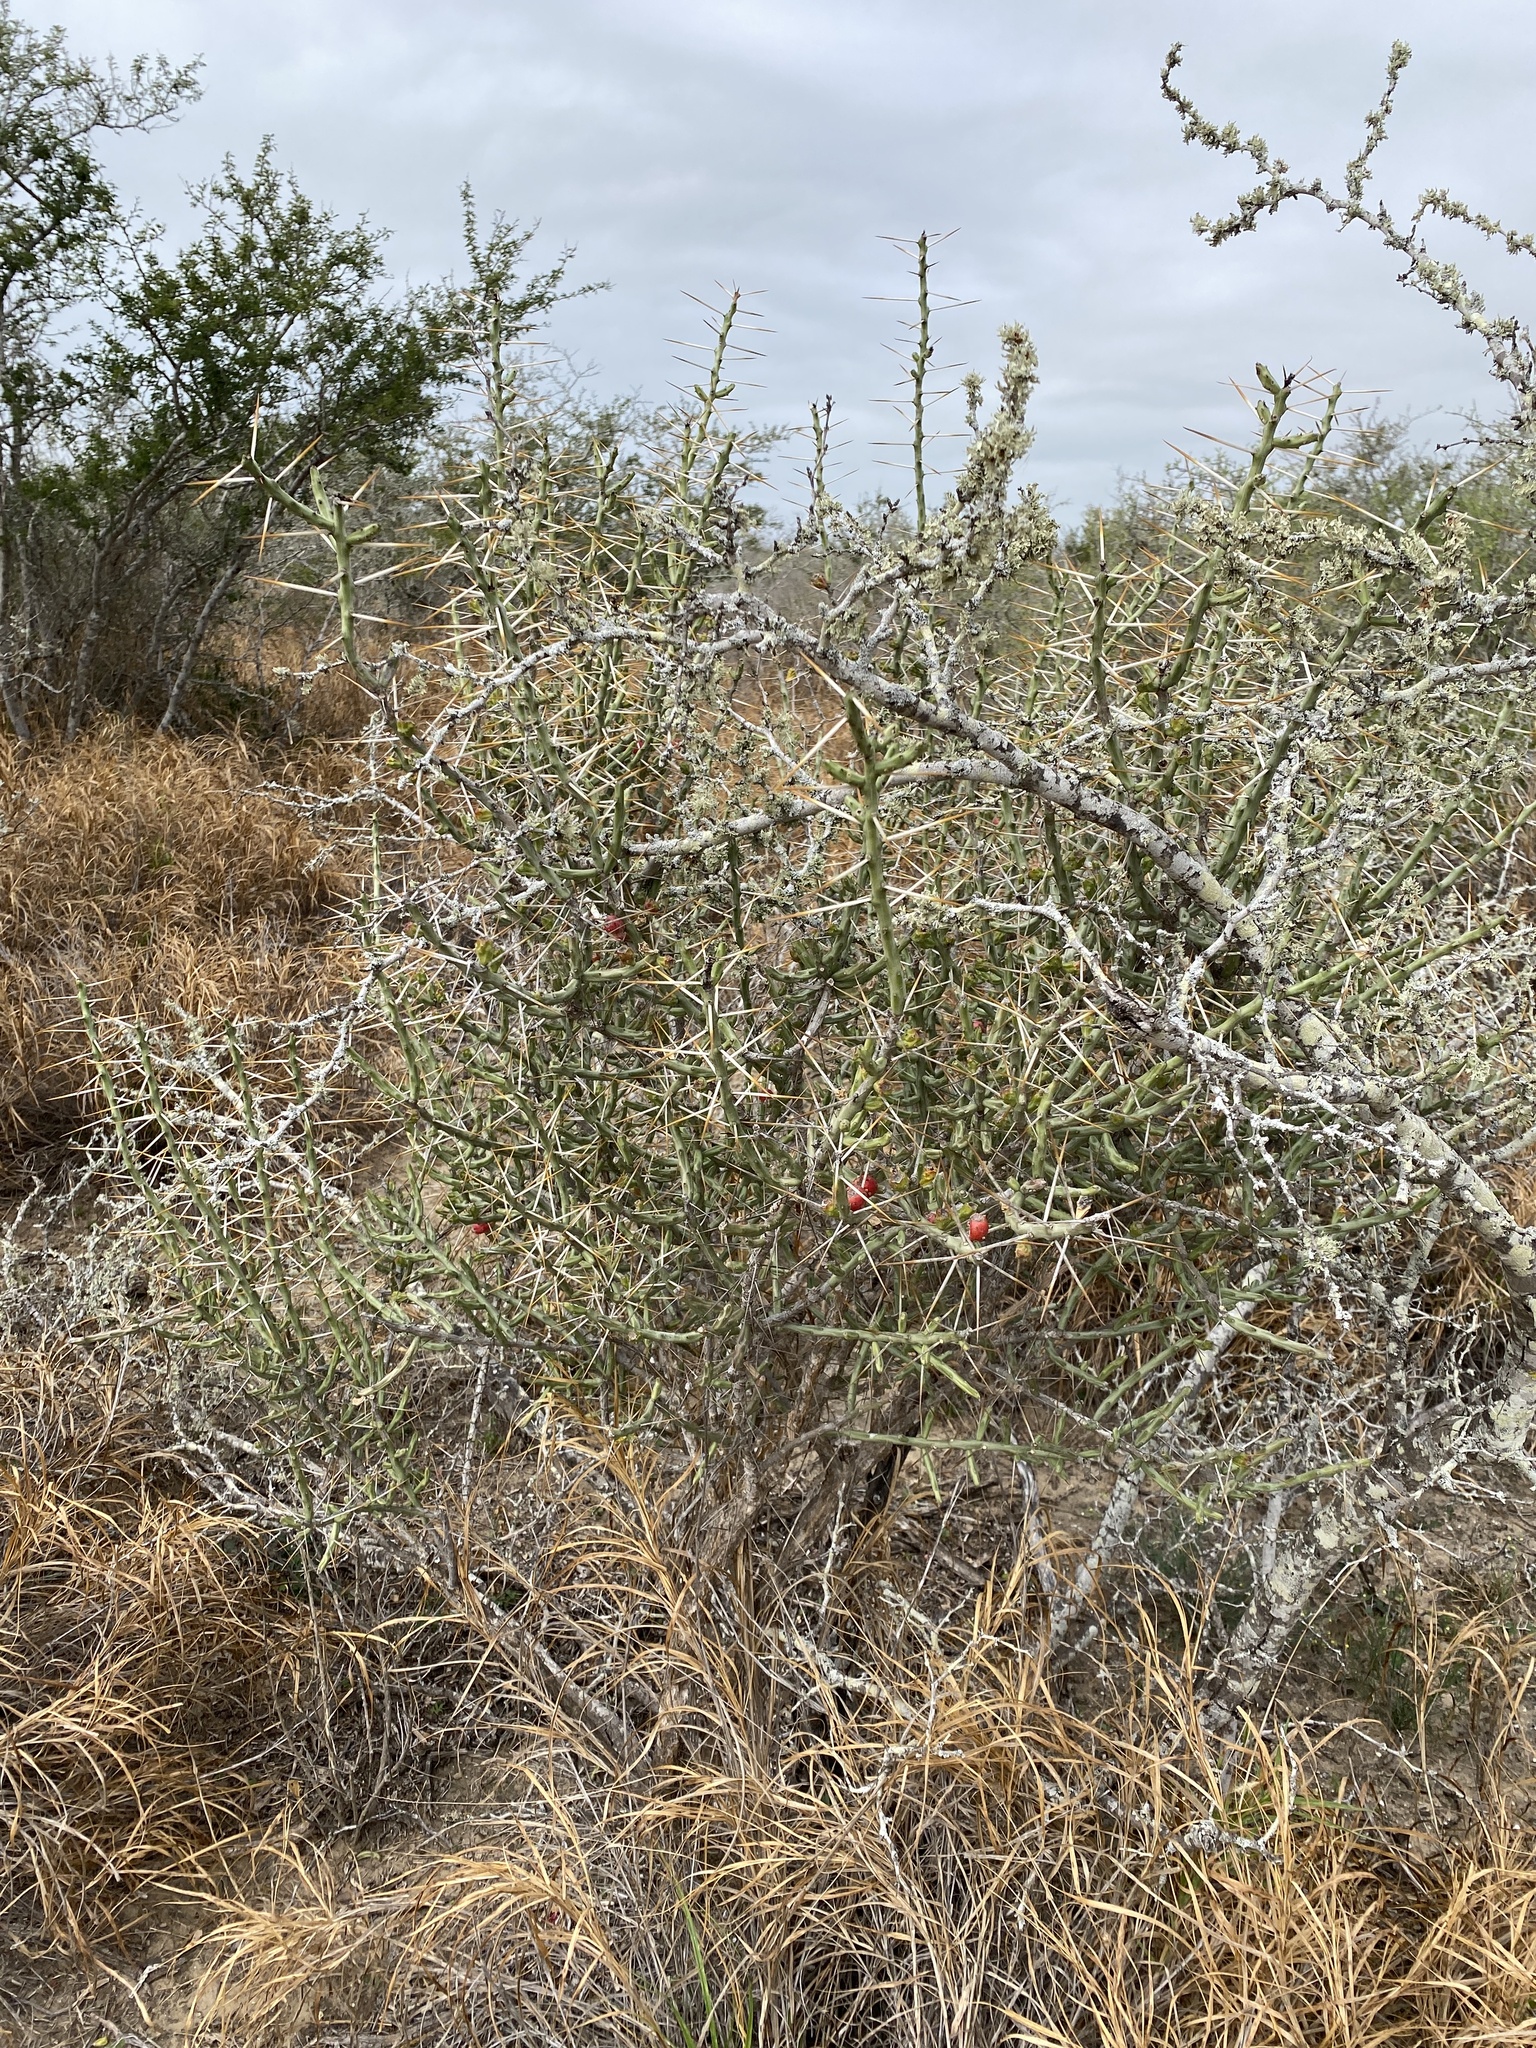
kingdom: Plantae
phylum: Tracheophyta
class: Magnoliopsida
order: Caryophyllales
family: Cactaceae
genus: Cylindropuntia
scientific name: Cylindropuntia leptocaulis
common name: Christmas cactus
